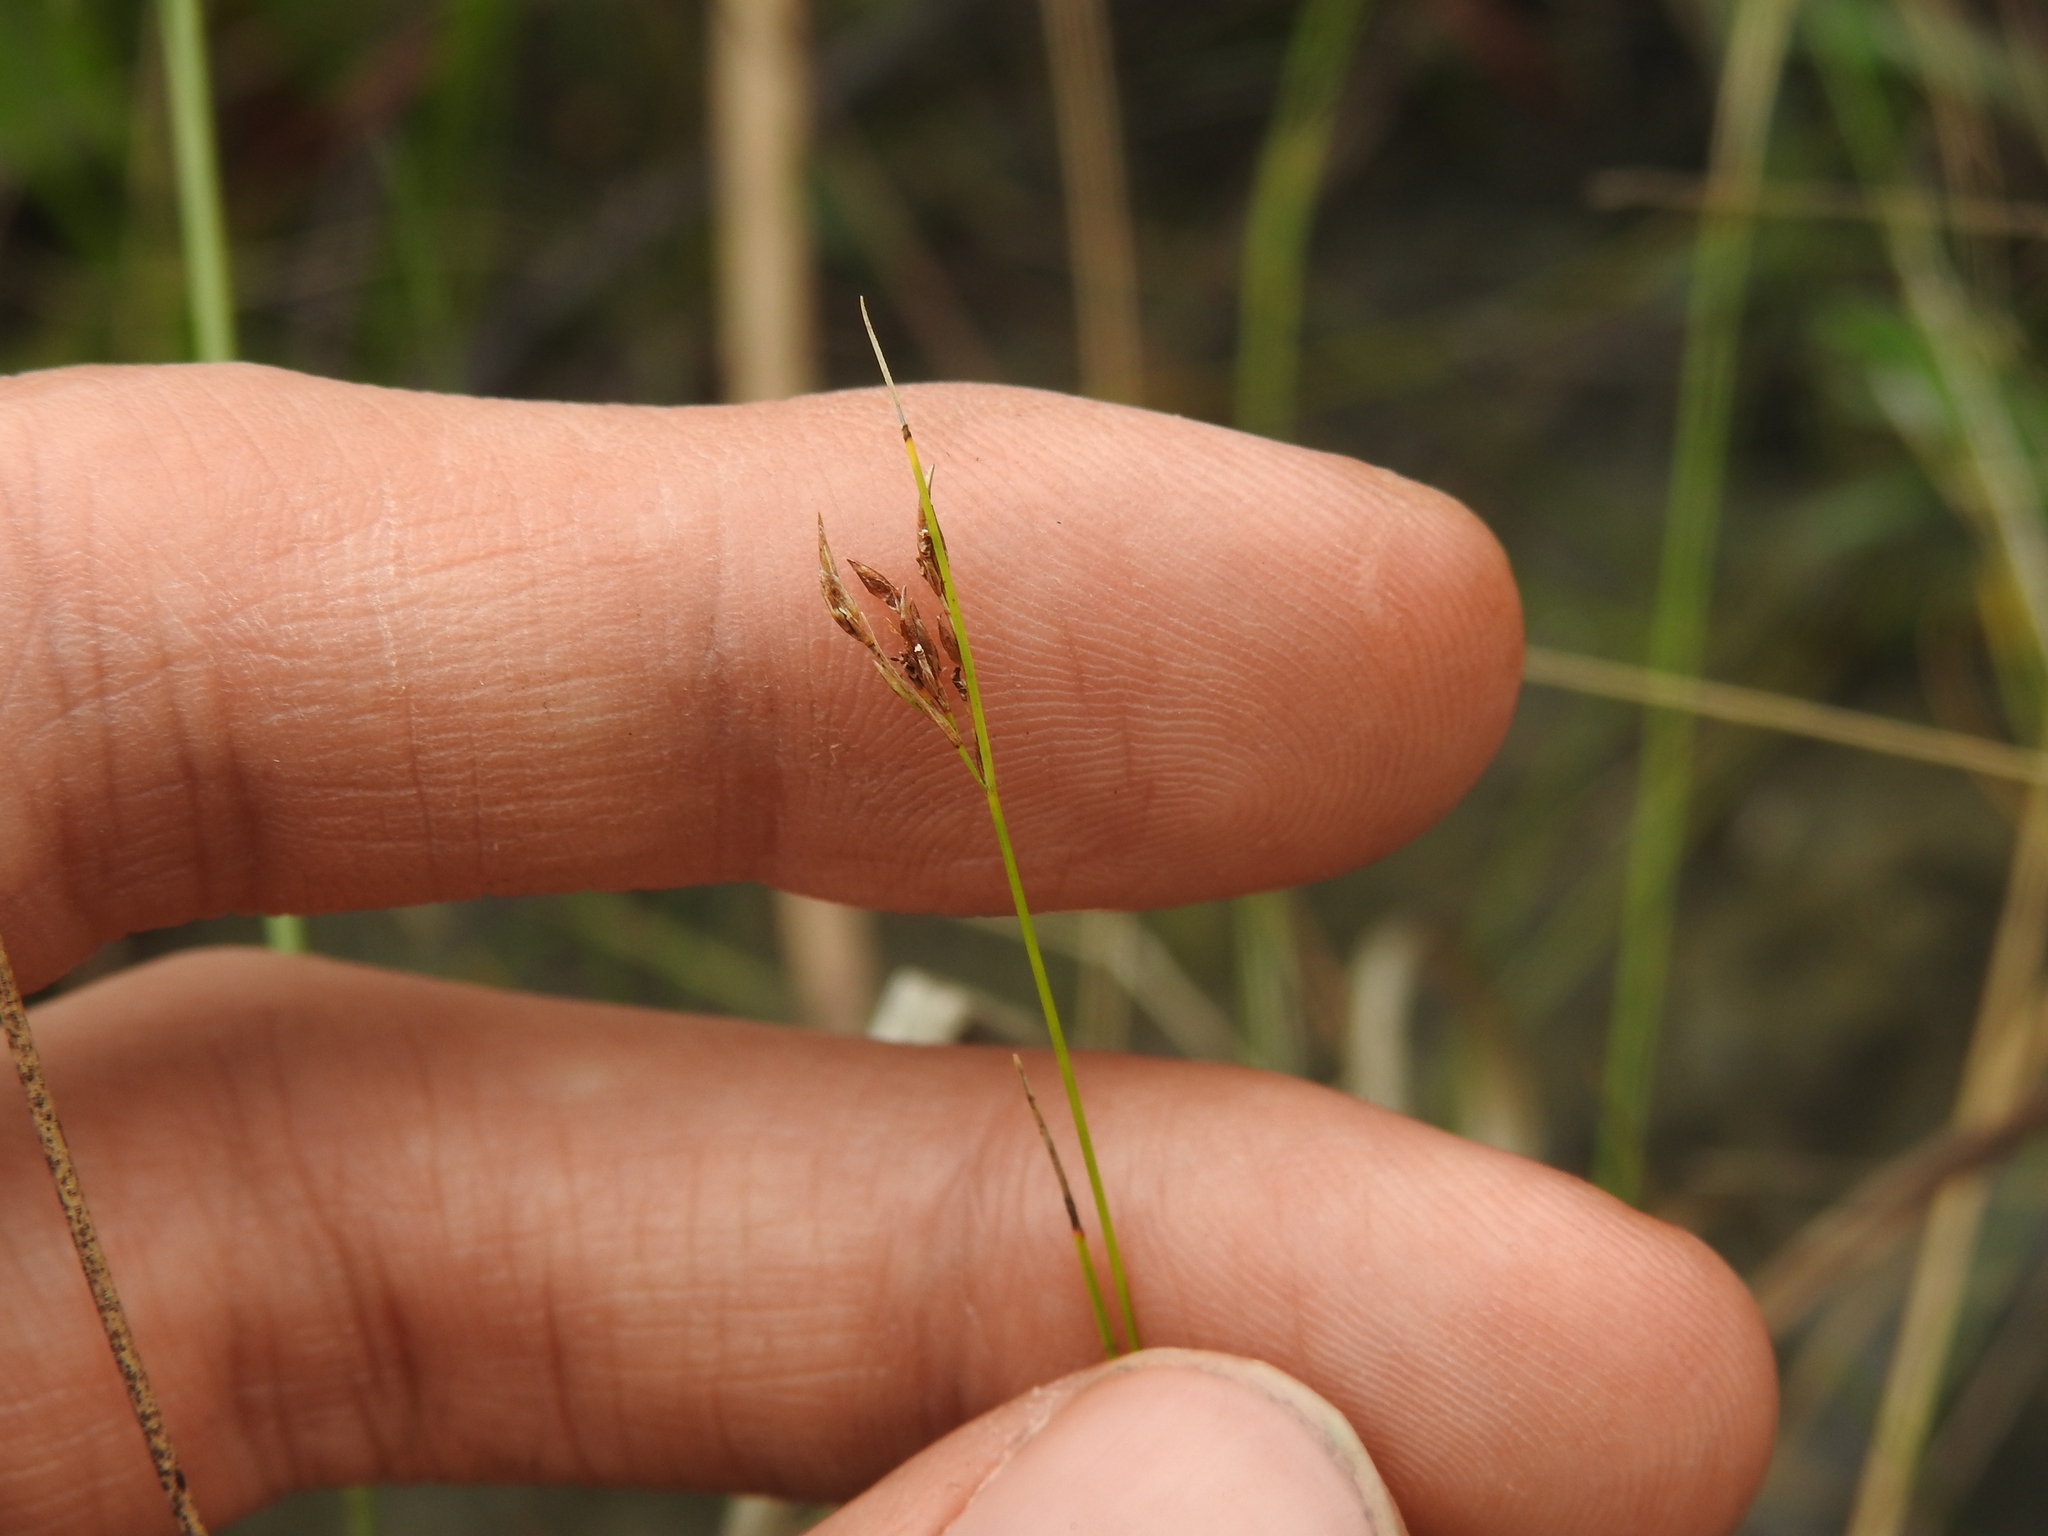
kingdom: Plantae
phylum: Tracheophyta
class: Liliopsida
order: Poales
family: Cyperaceae
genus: Rhynchospora
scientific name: Rhynchospora divergens
